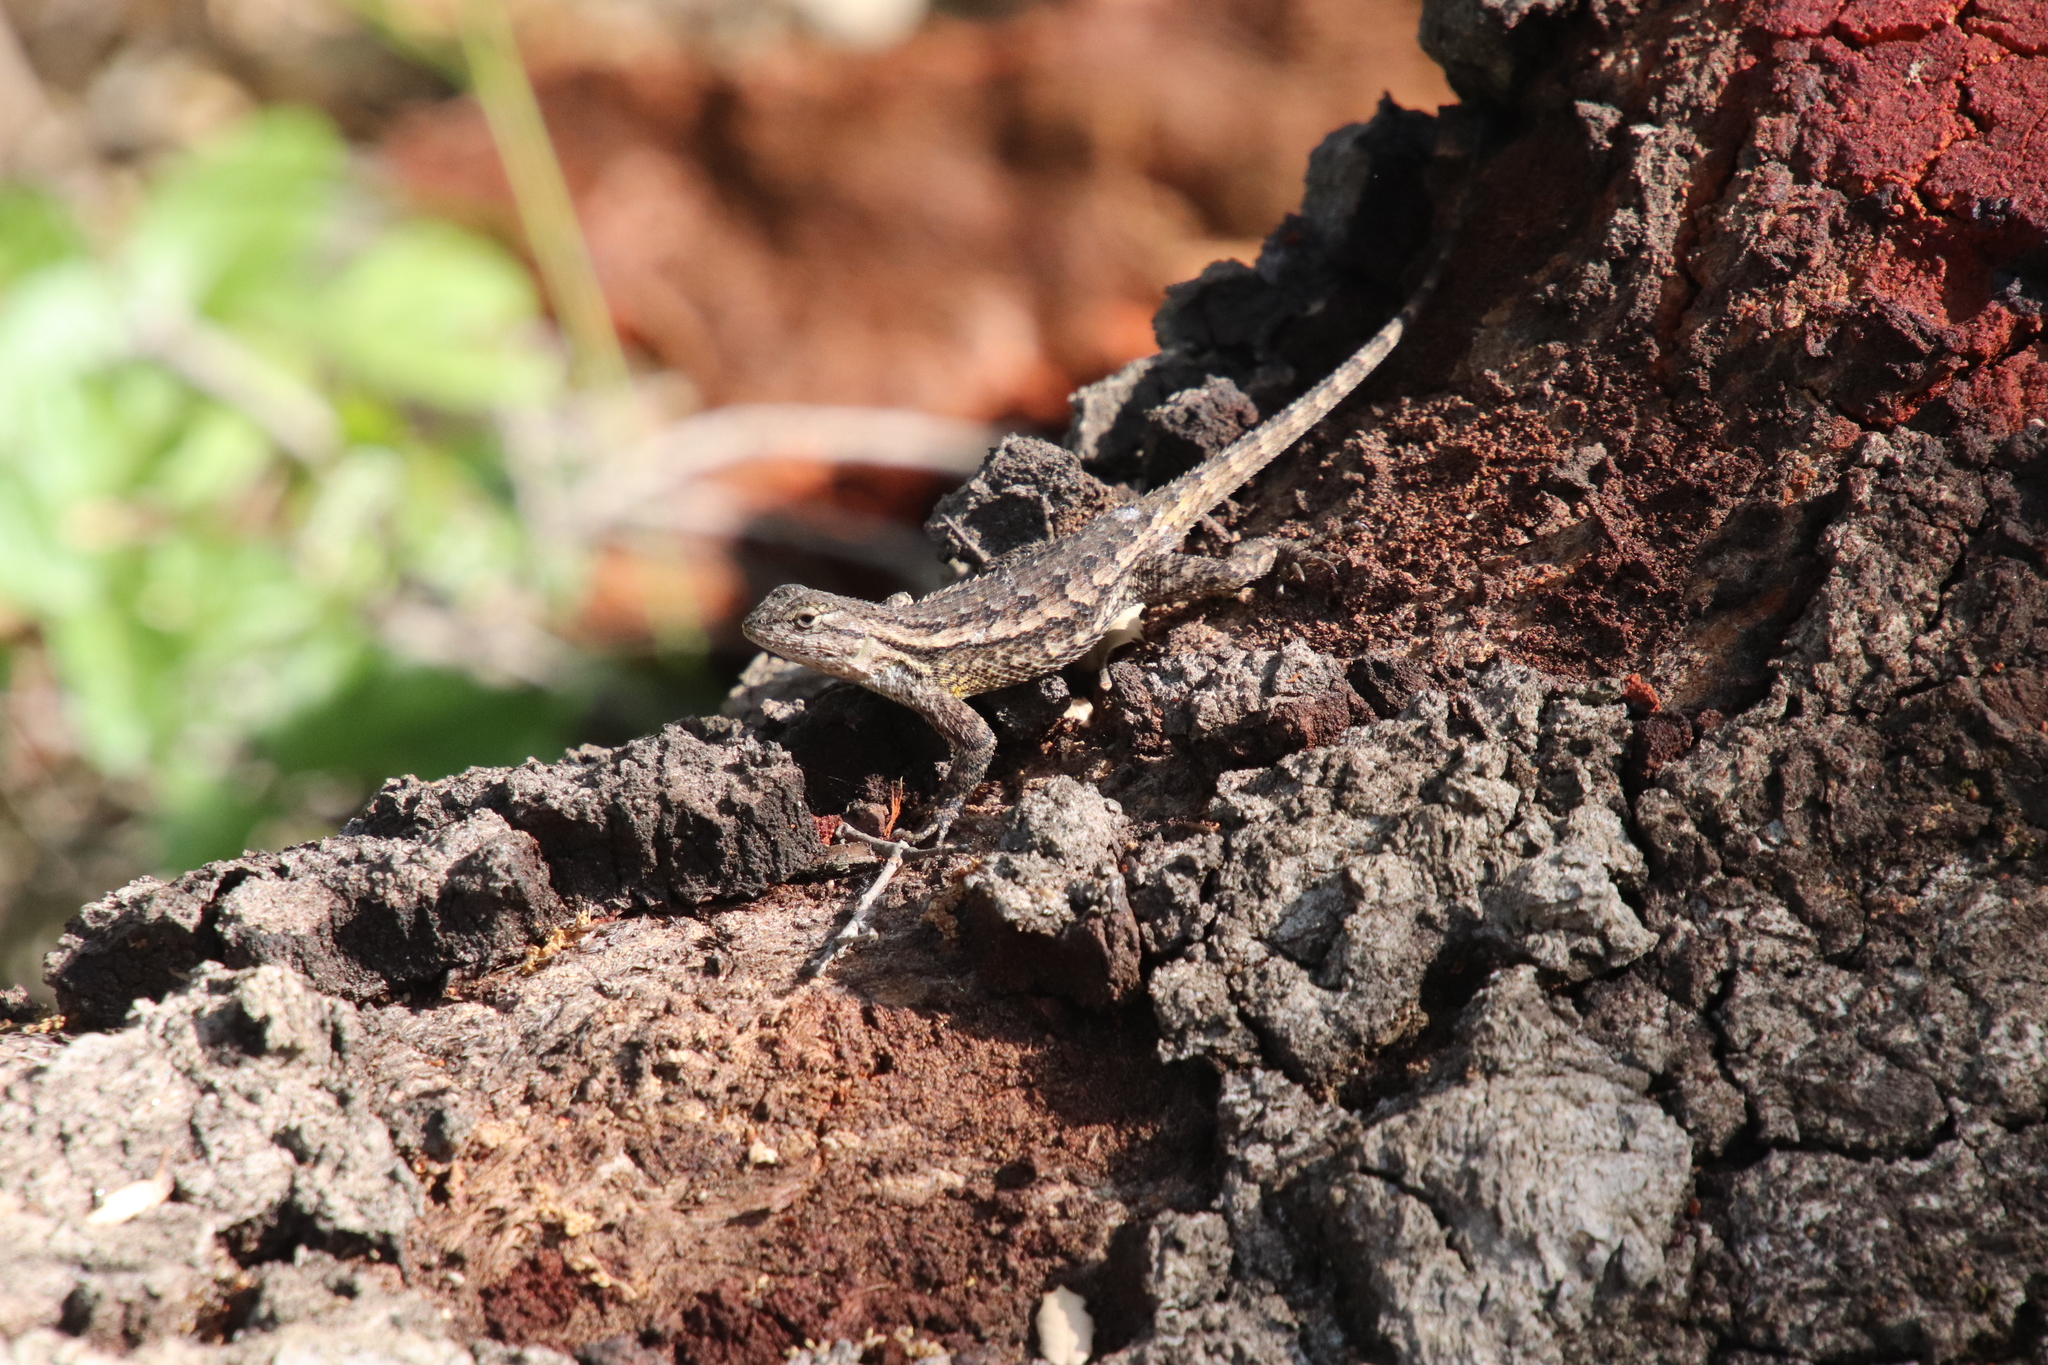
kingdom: Animalia
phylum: Chordata
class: Squamata
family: Phrynosomatidae
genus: Sceloporus
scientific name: Sceloporus occidentalis
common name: Western fence lizard
